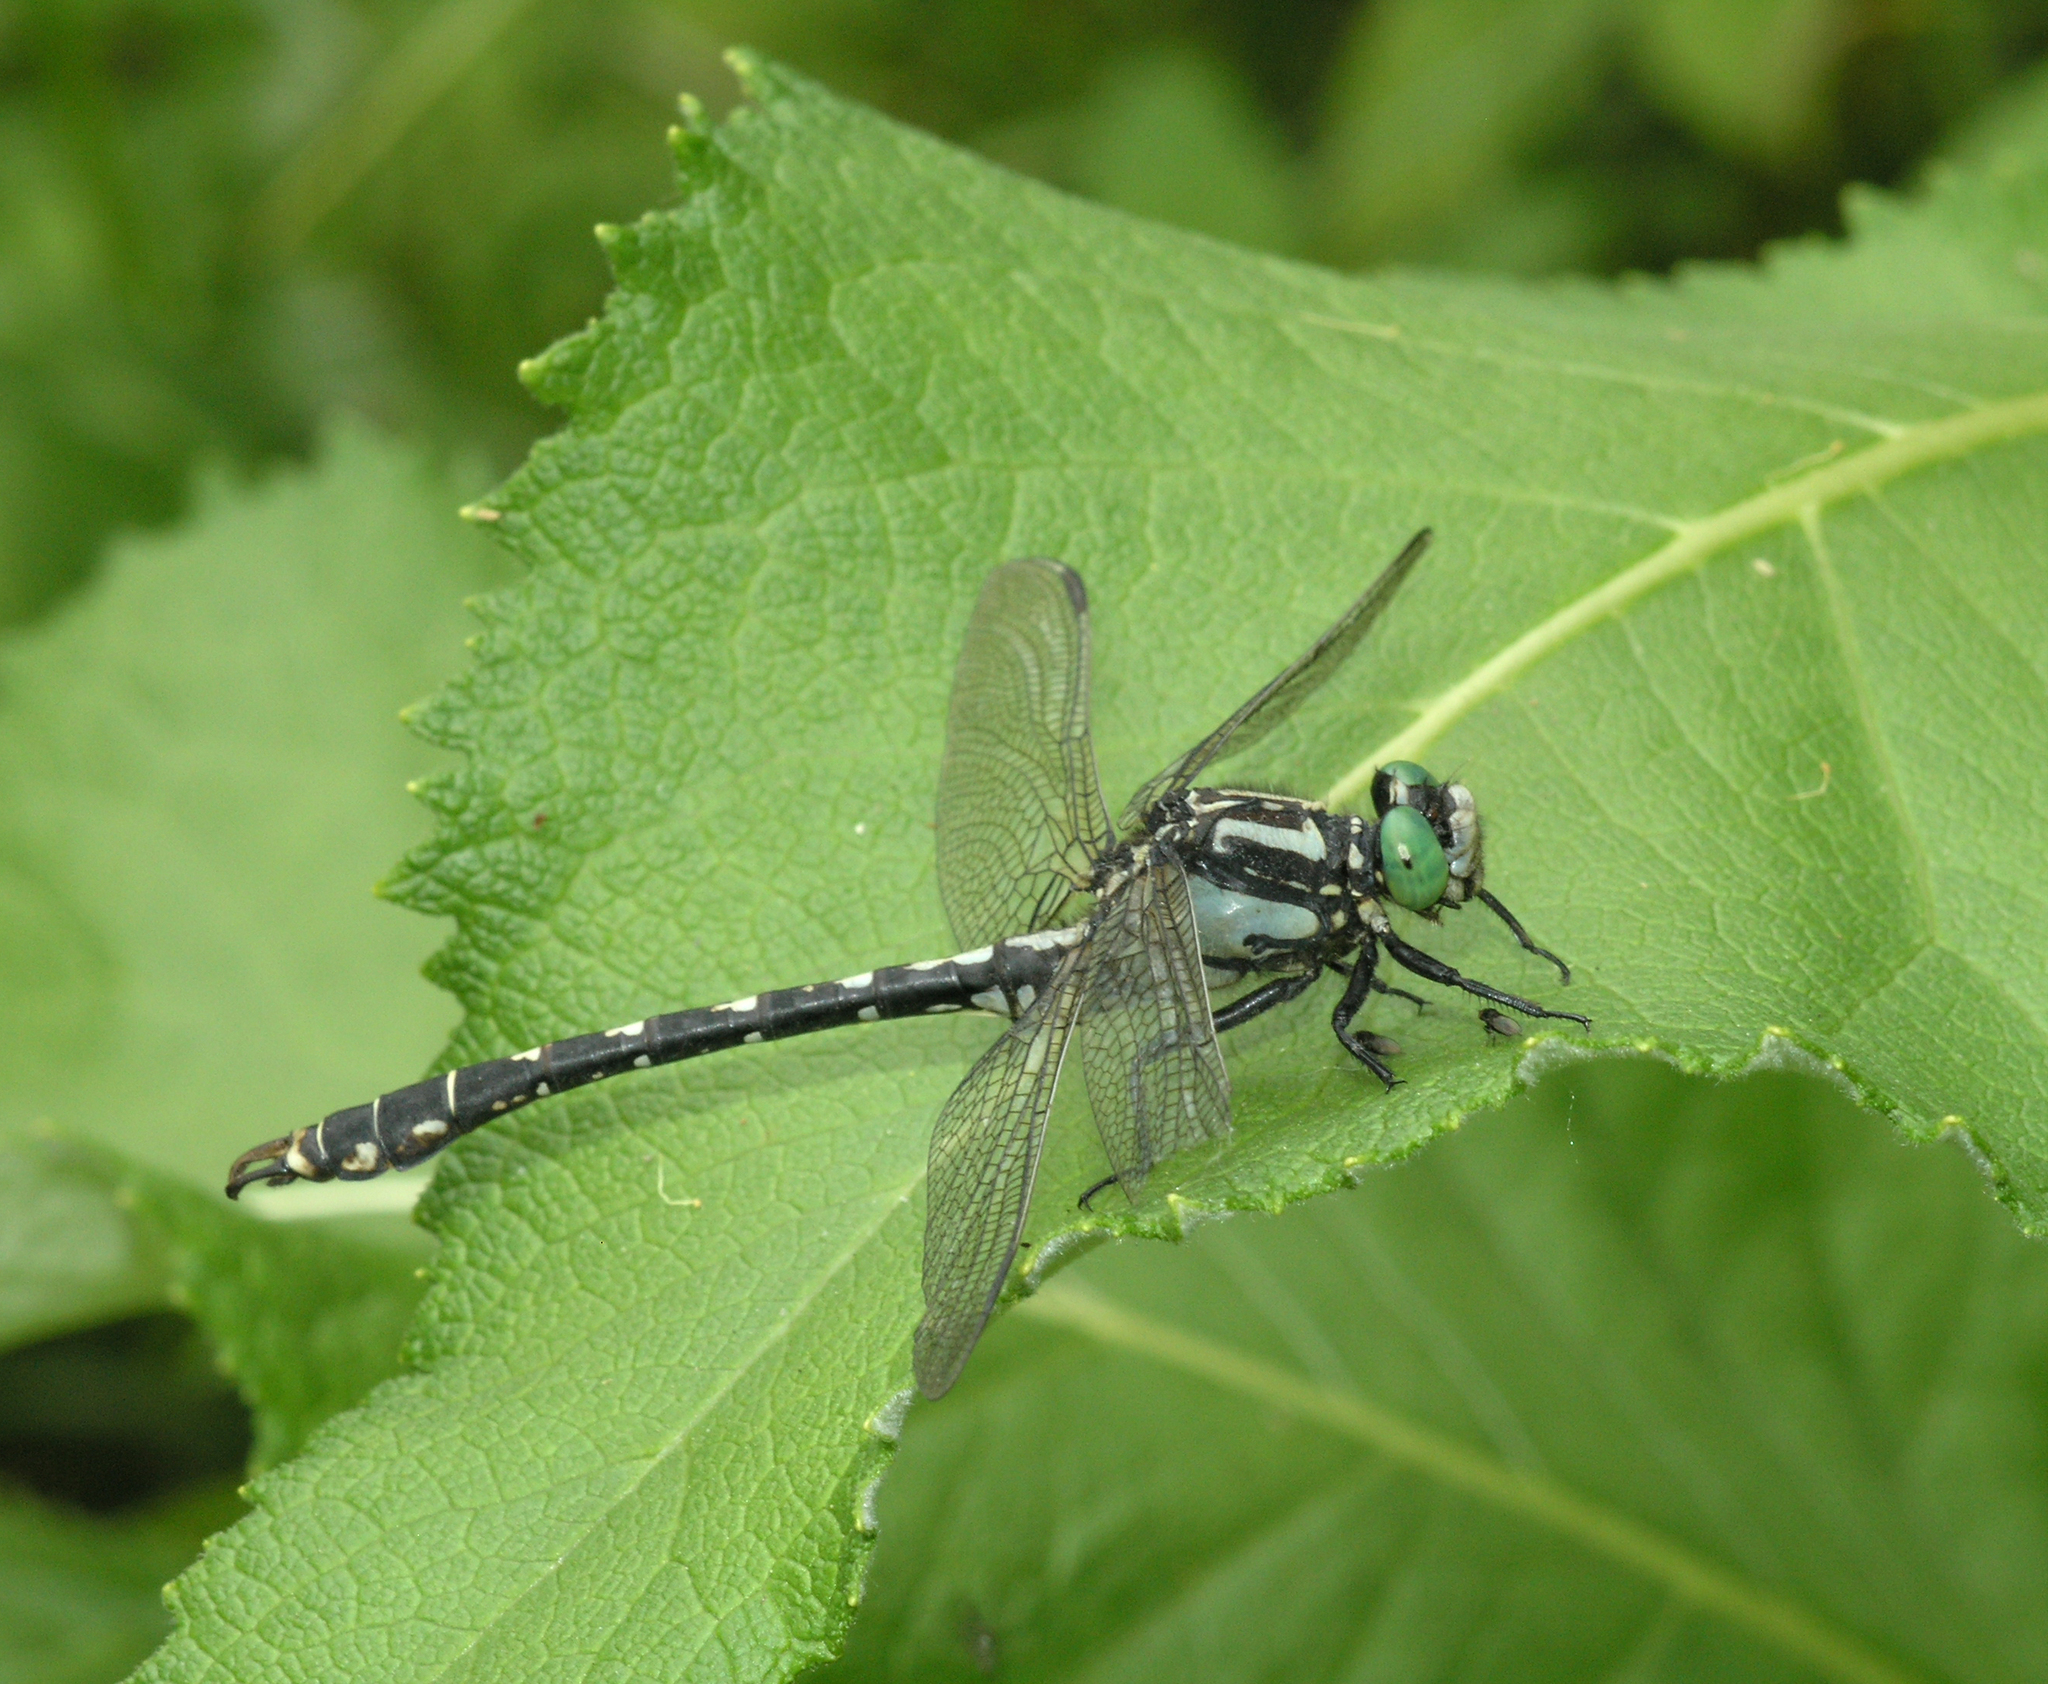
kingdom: Animalia
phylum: Arthropoda
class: Insecta
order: Odonata
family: Gomphidae
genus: Nihonogomphus
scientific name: Nihonogomphus ruptus
